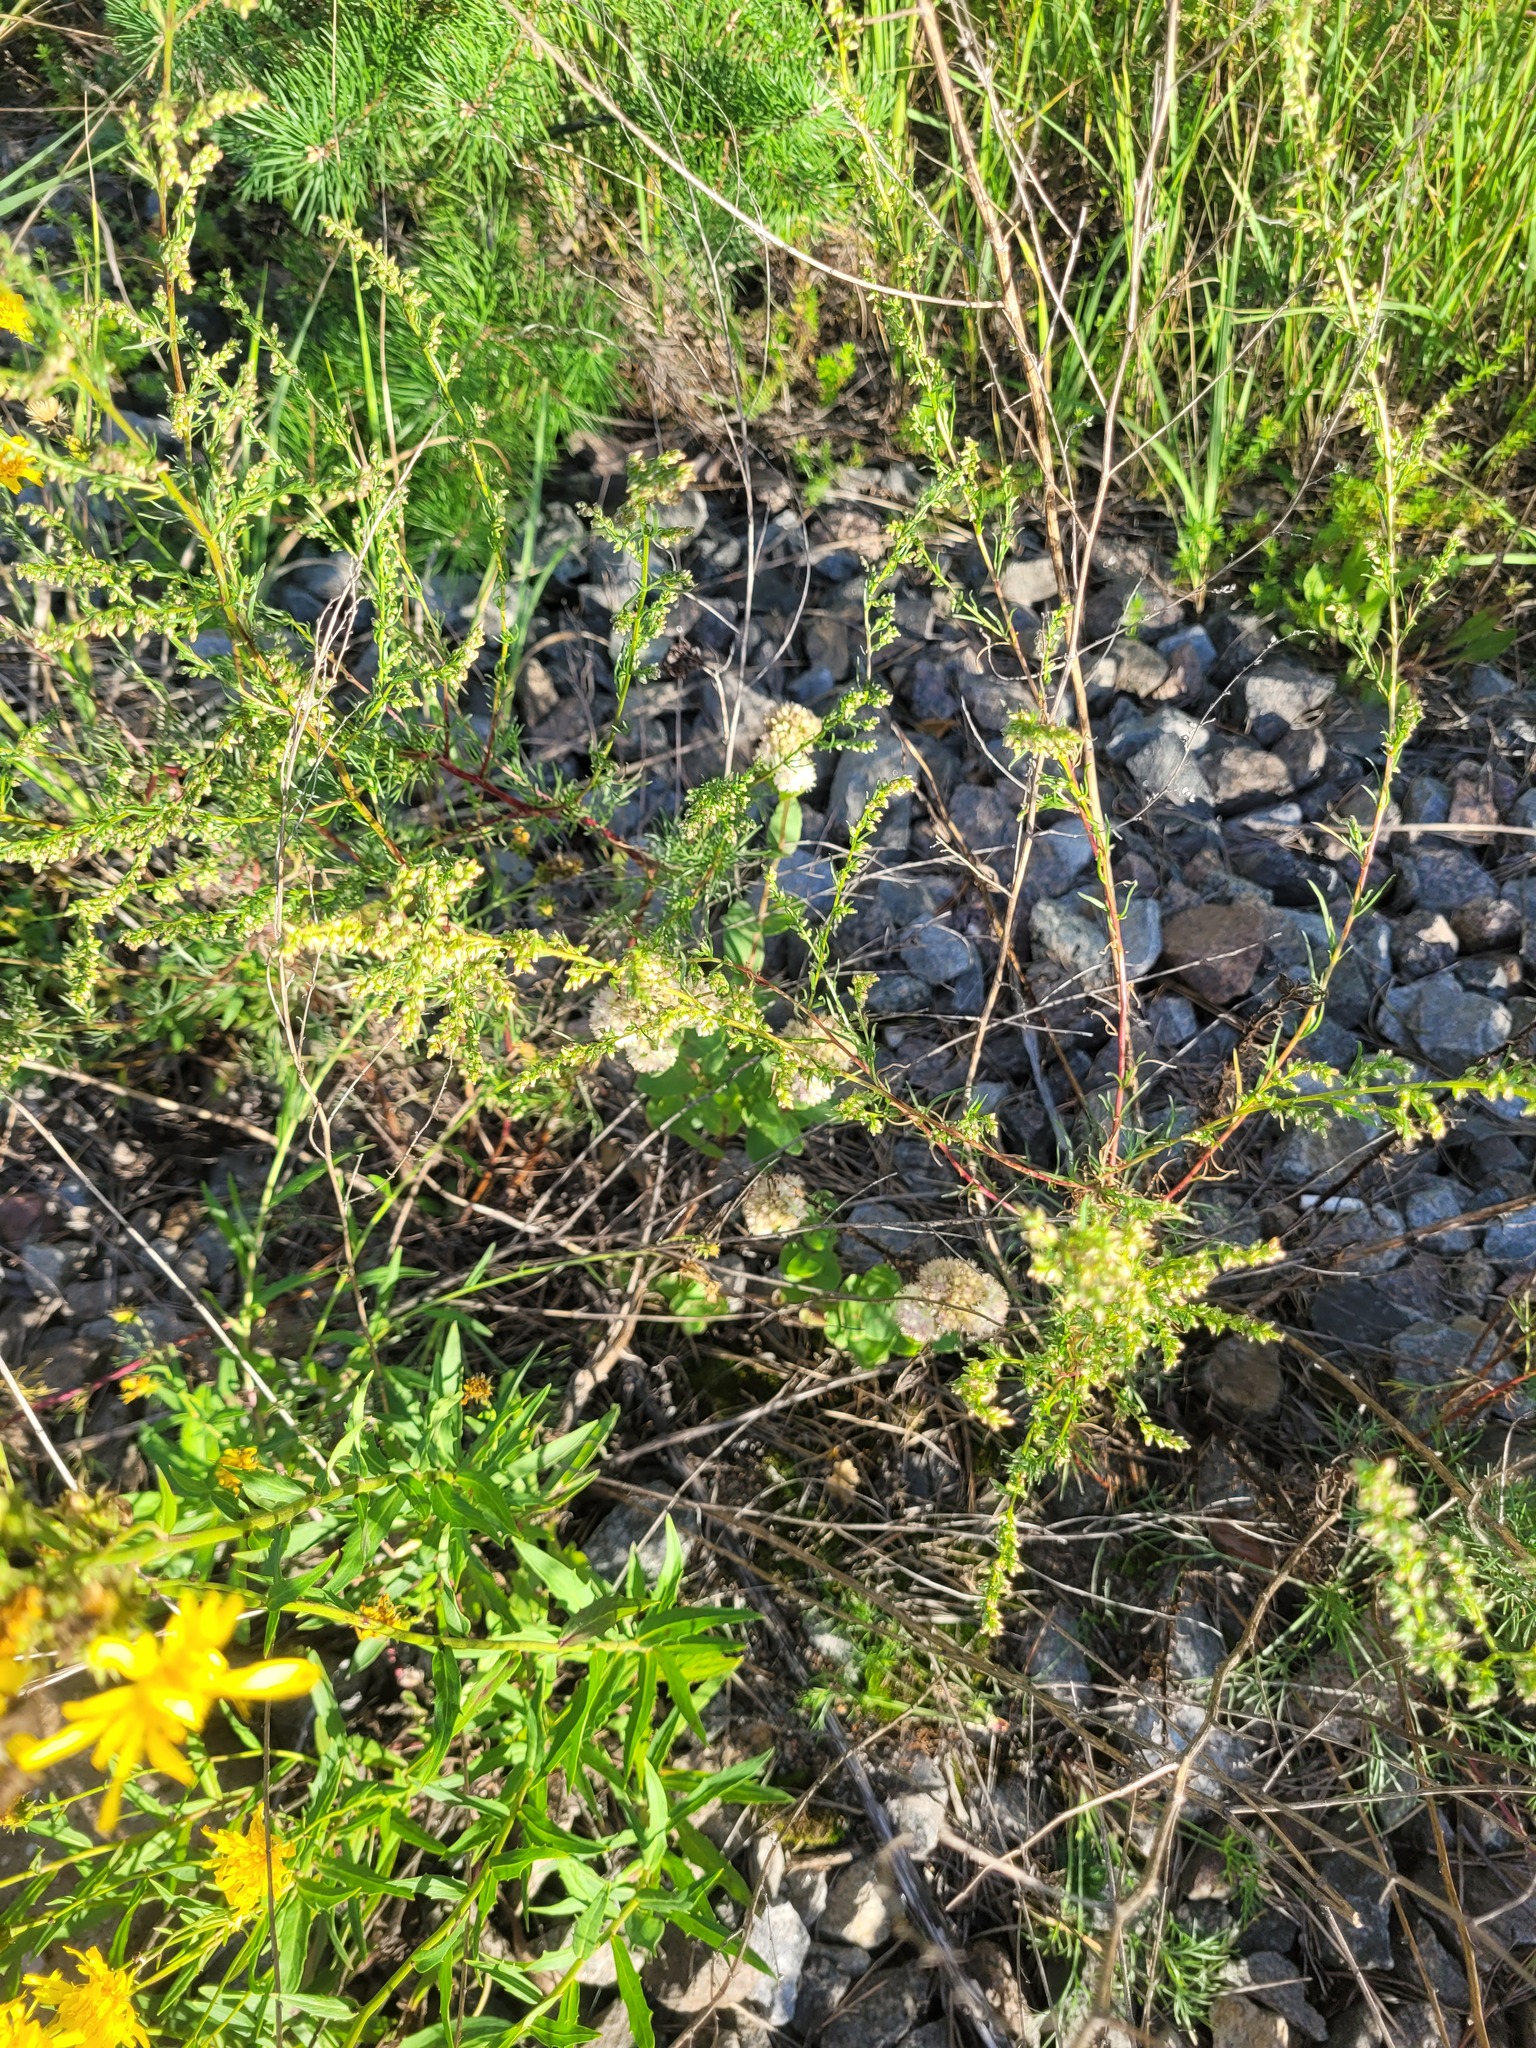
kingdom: Plantae
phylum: Tracheophyta
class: Magnoliopsida
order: Saxifragales
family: Crassulaceae
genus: Hylotelephium
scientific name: Hylotelephium maximum
